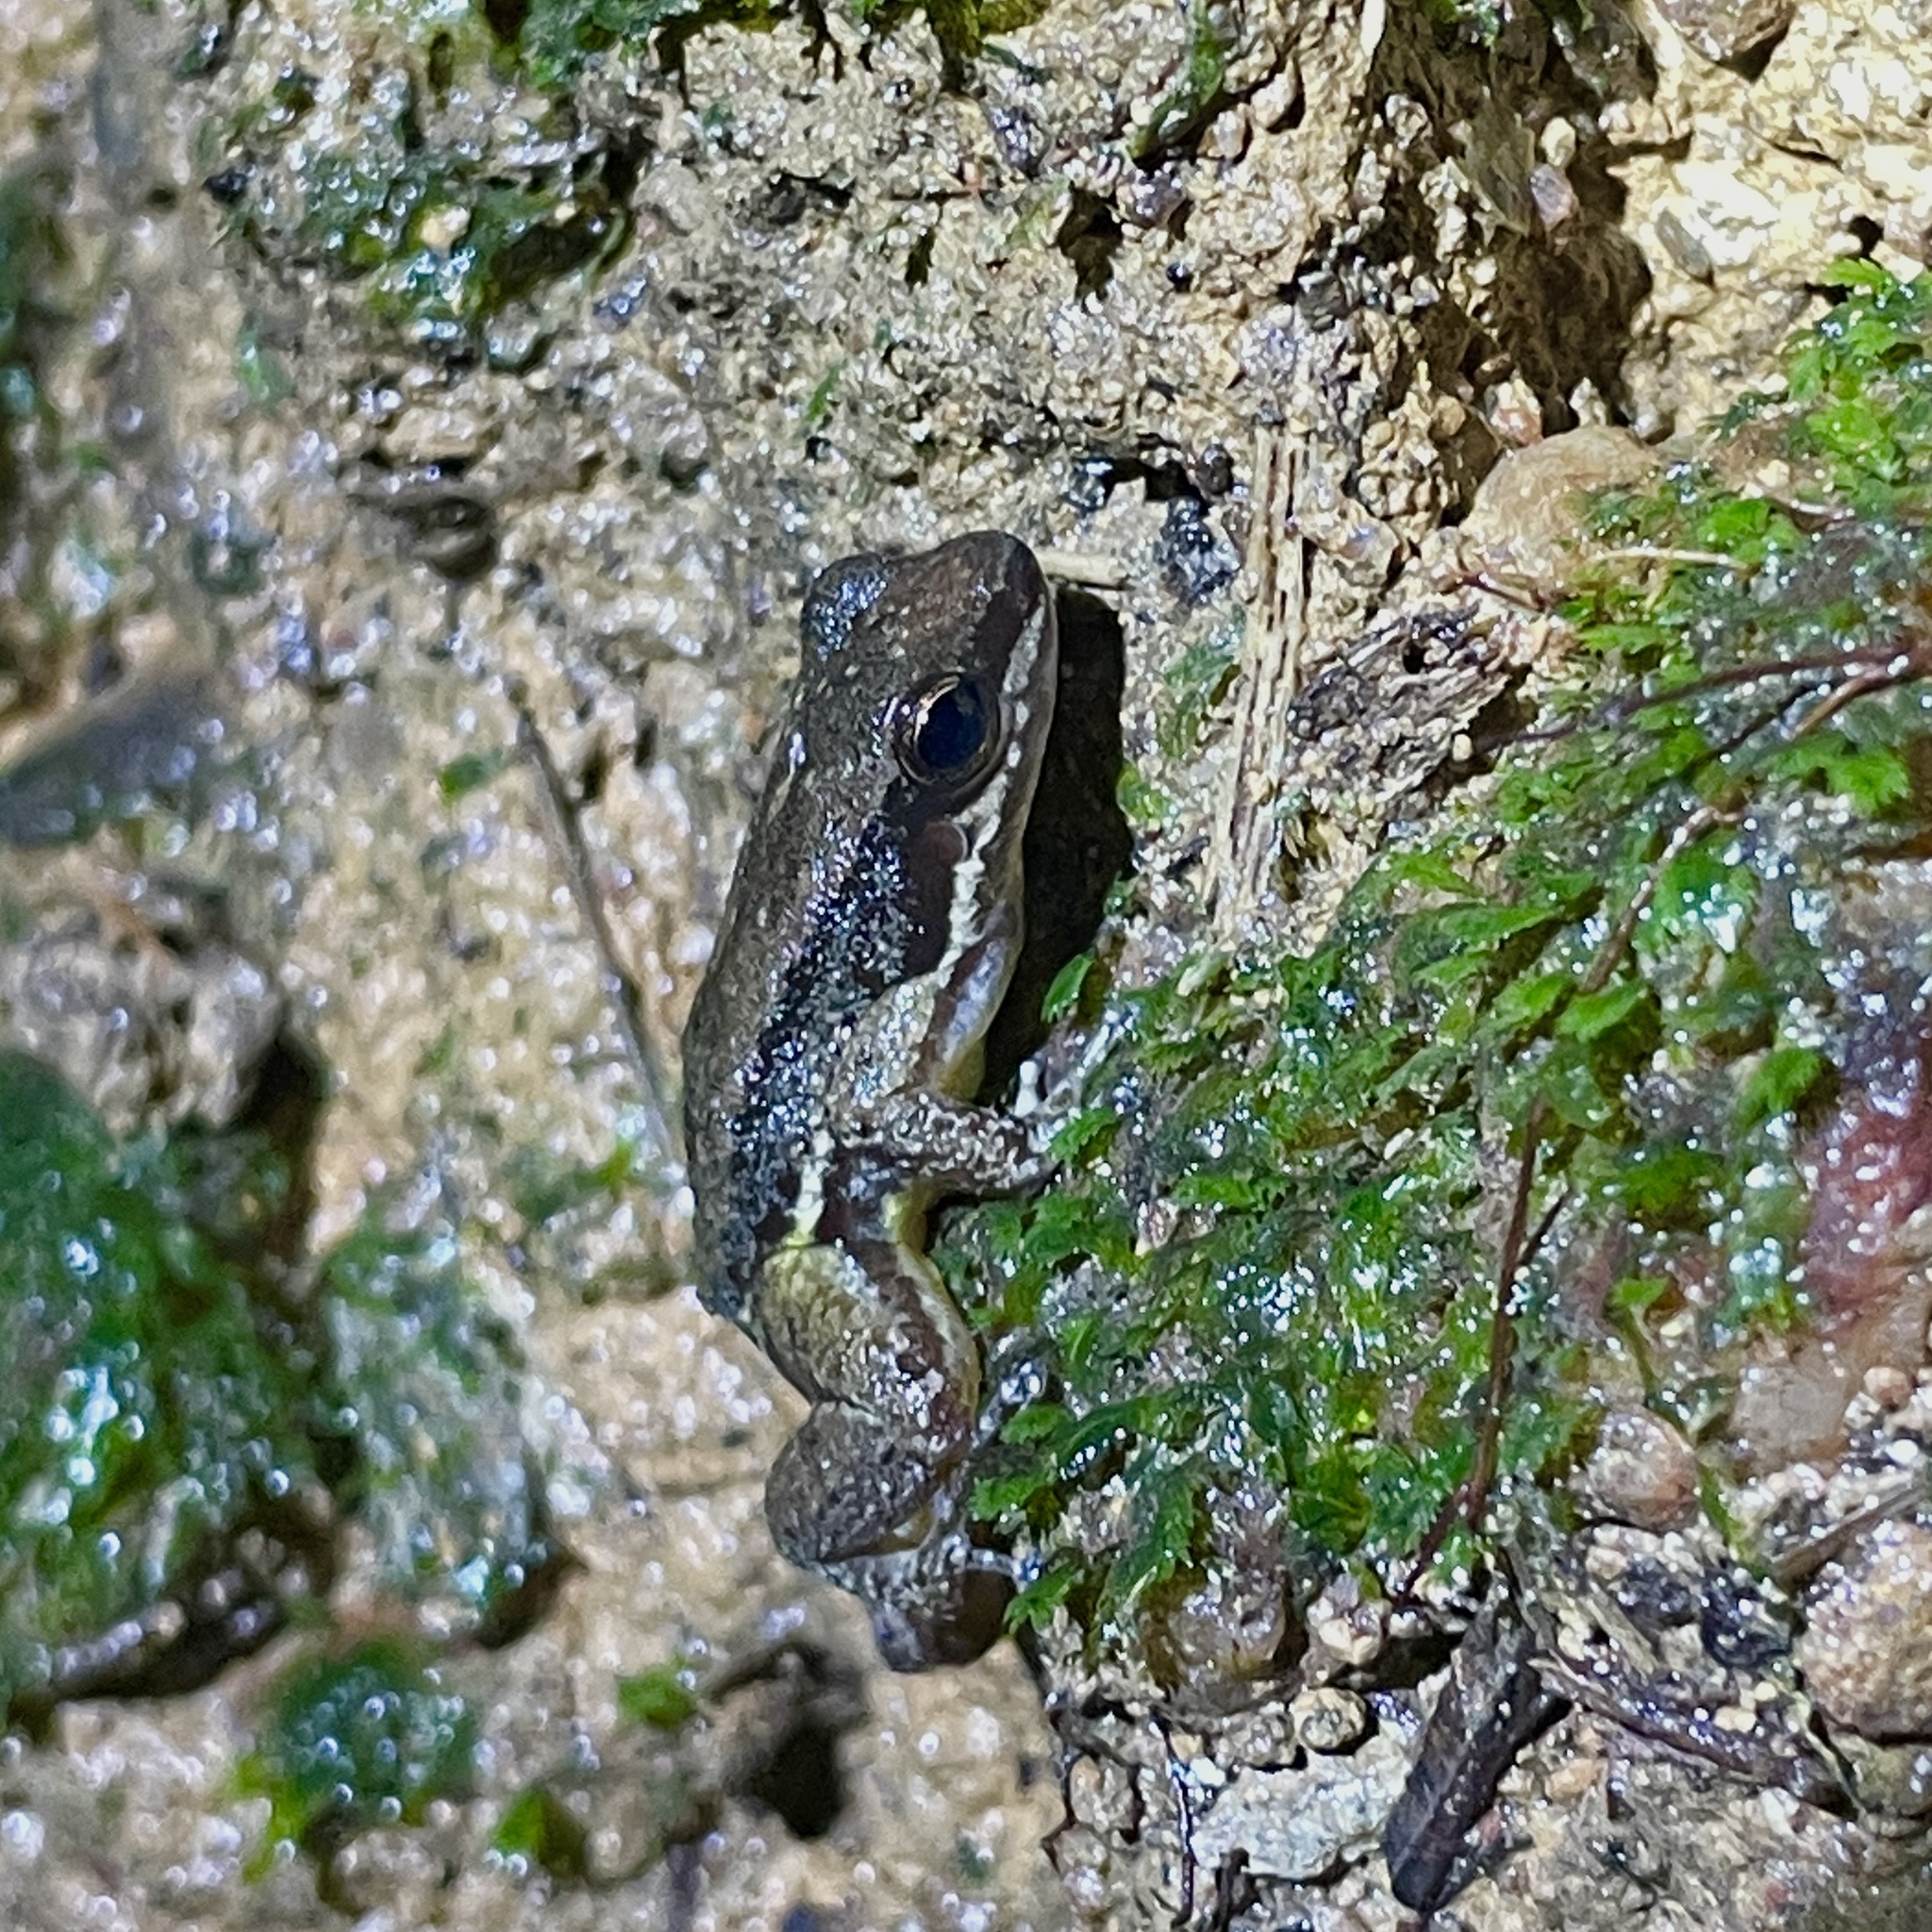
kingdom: Animalia
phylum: Chordata
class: Amphibia
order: Anura
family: Aromobatidae
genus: Mannophryne
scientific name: Mannophryne trinitatis
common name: Trinidad poison frog
